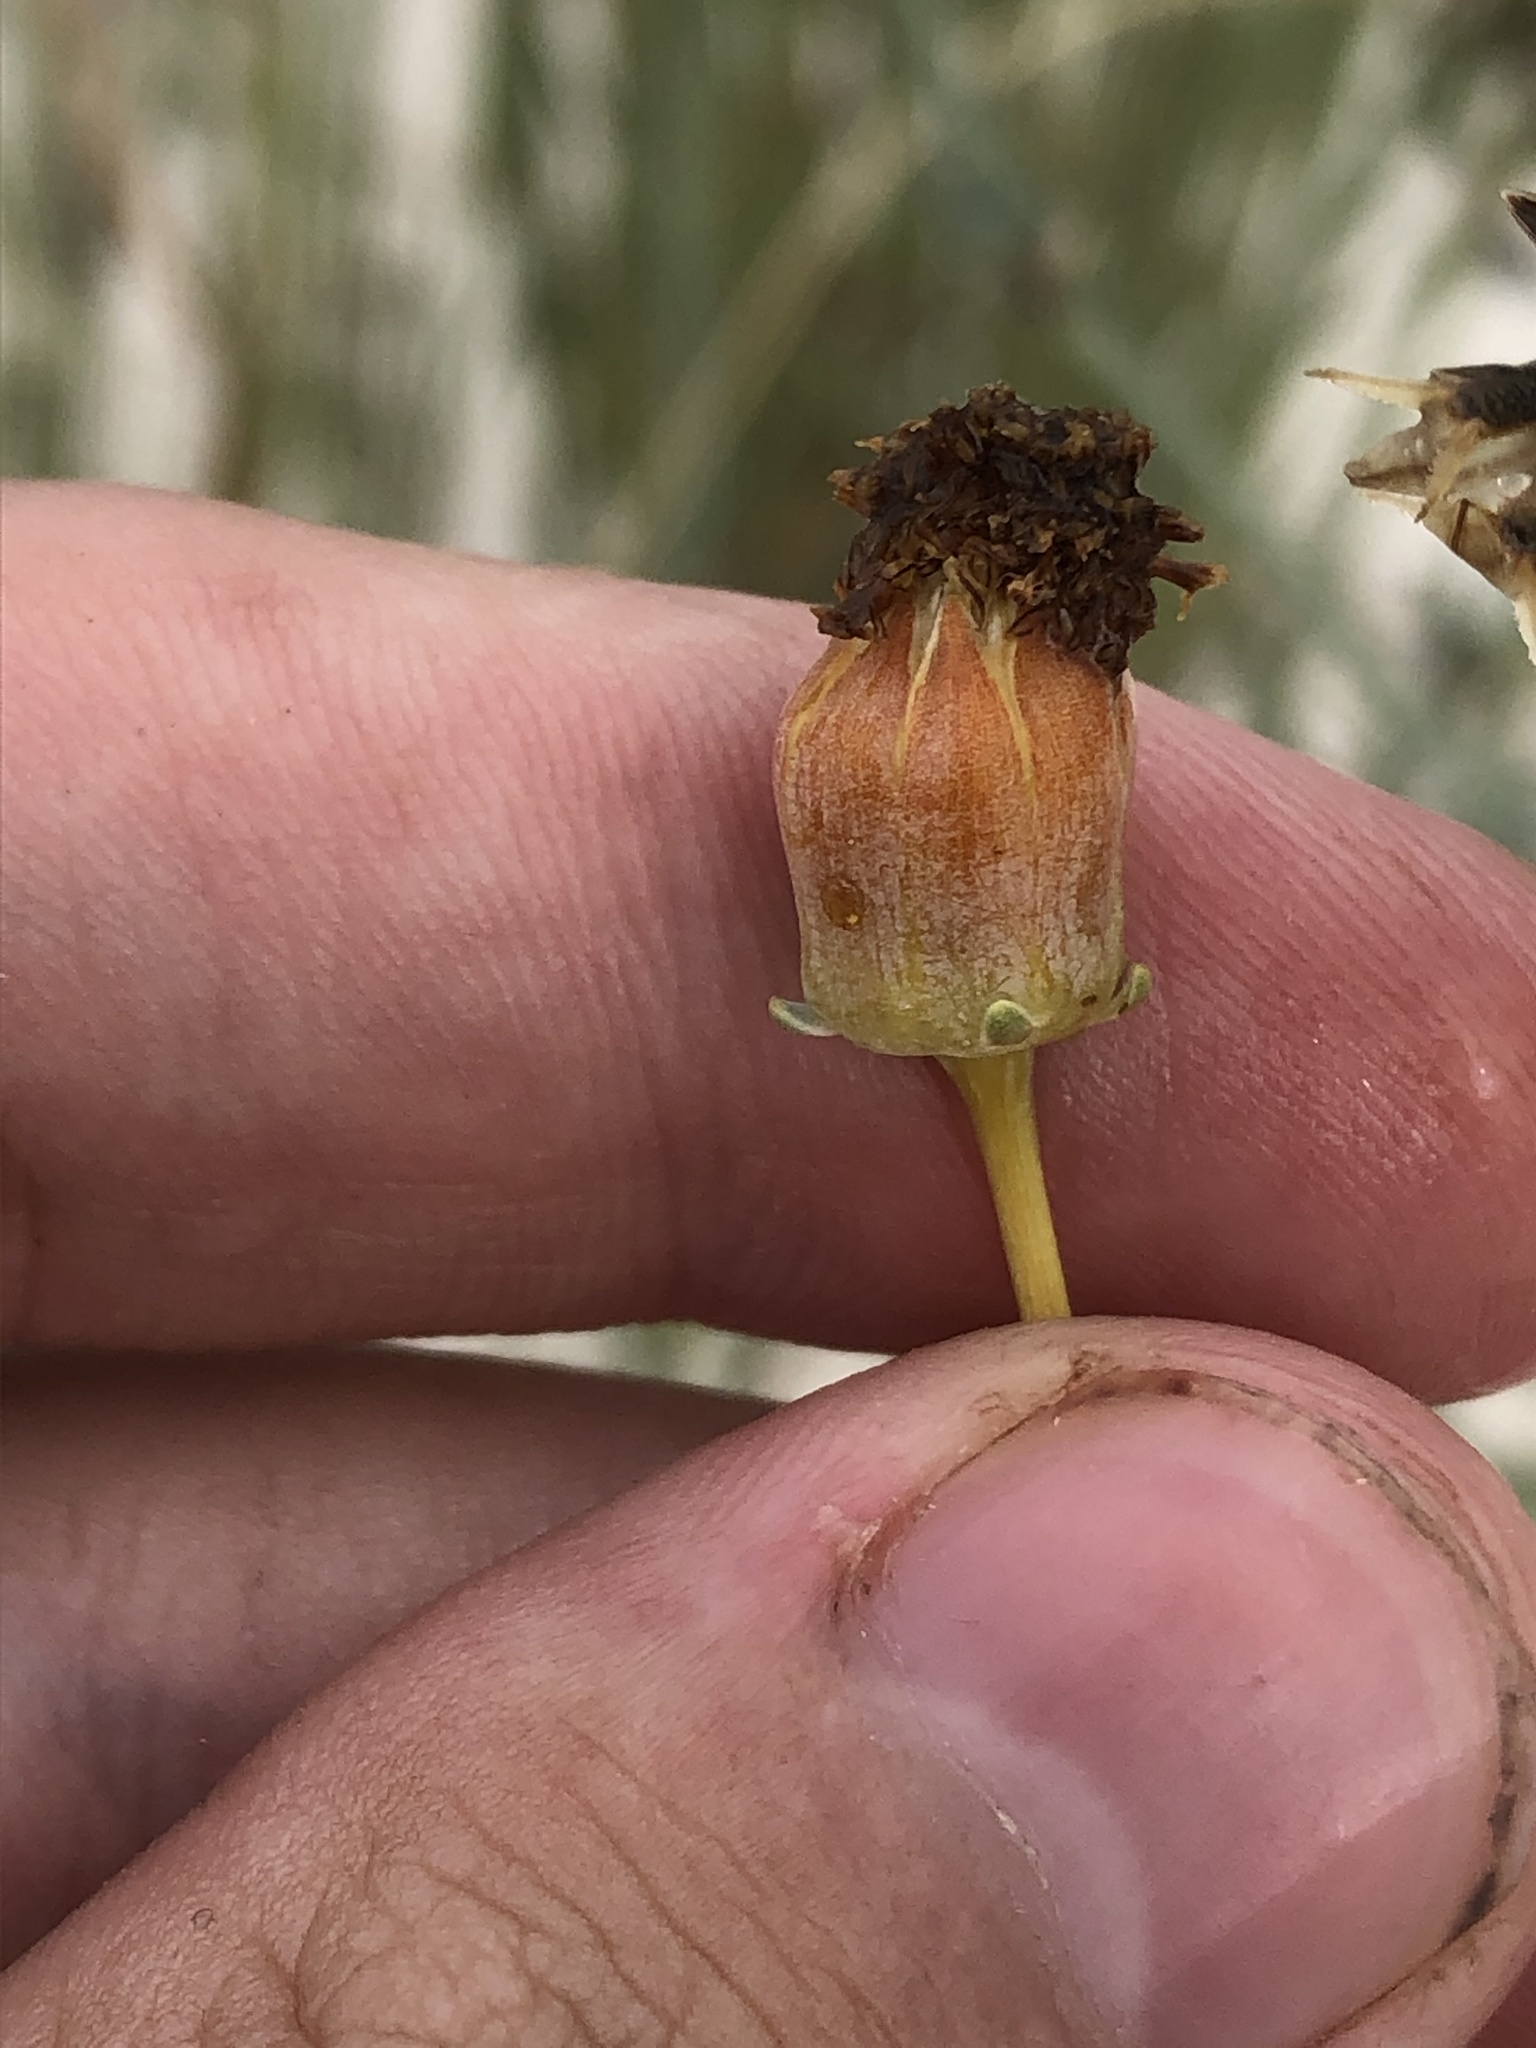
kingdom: Plantae
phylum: Tracheophyta
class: Magnoliopsida
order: Asterales
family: Asteraceae
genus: Thelesperma
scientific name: Thelesperma megapotamicum
